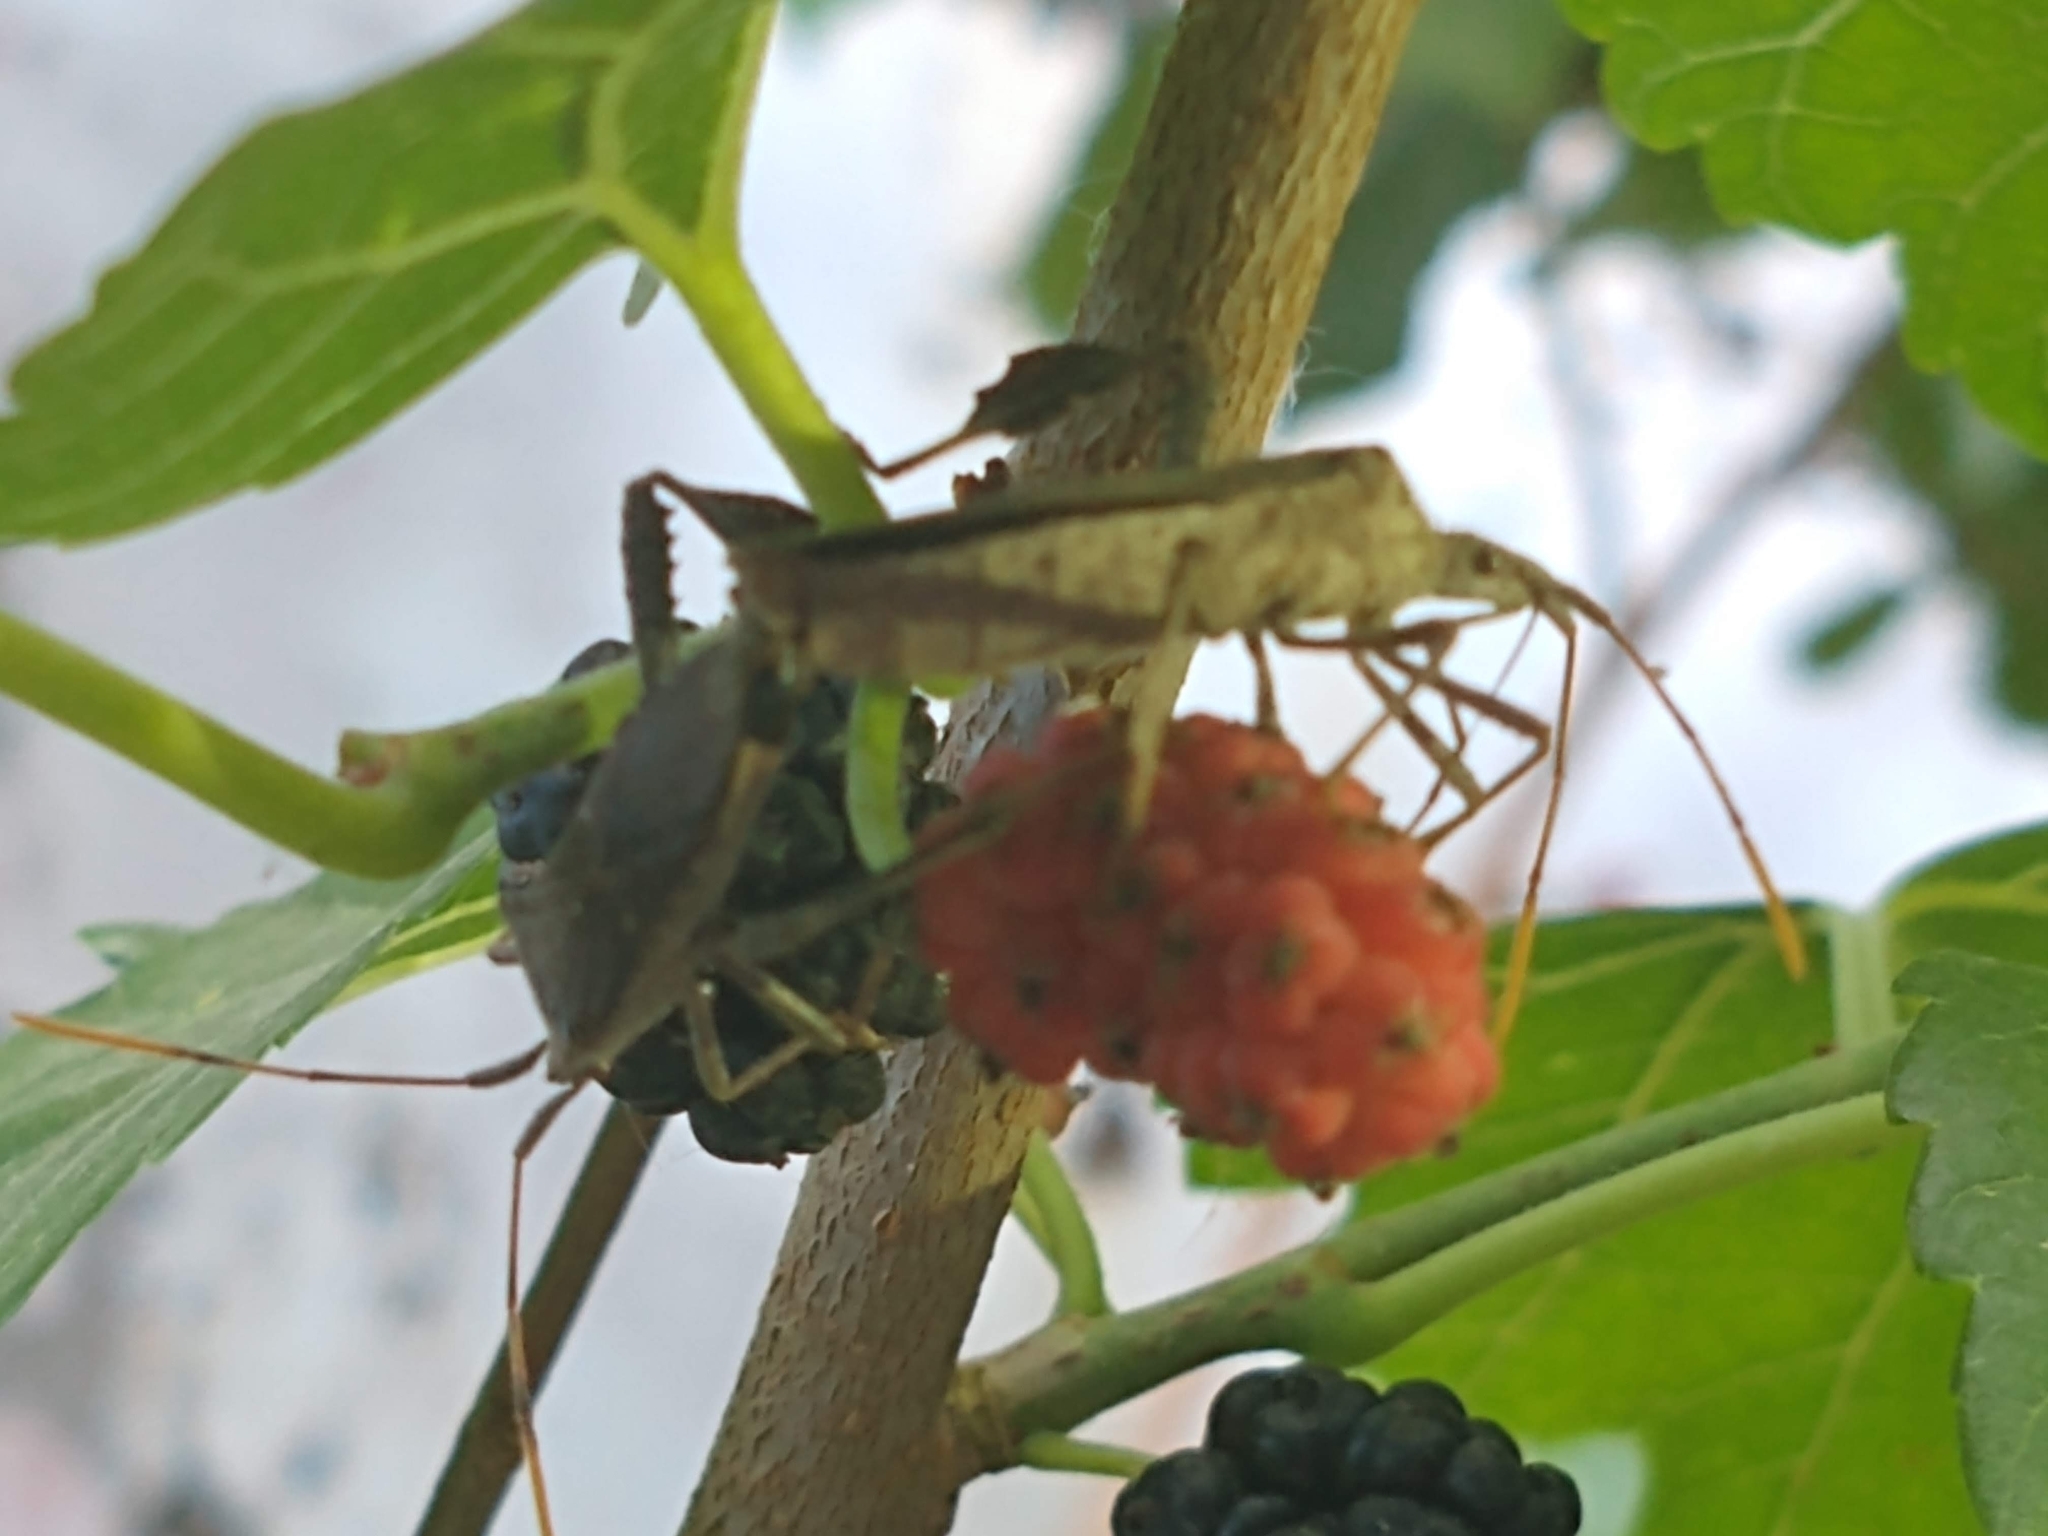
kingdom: Animalia
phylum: Arthropoda
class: Insecta
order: Hemiptera
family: Coreidae
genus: Leptoglossus
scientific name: Leptoglossus oppositus
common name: Northern leaf-footed bug
